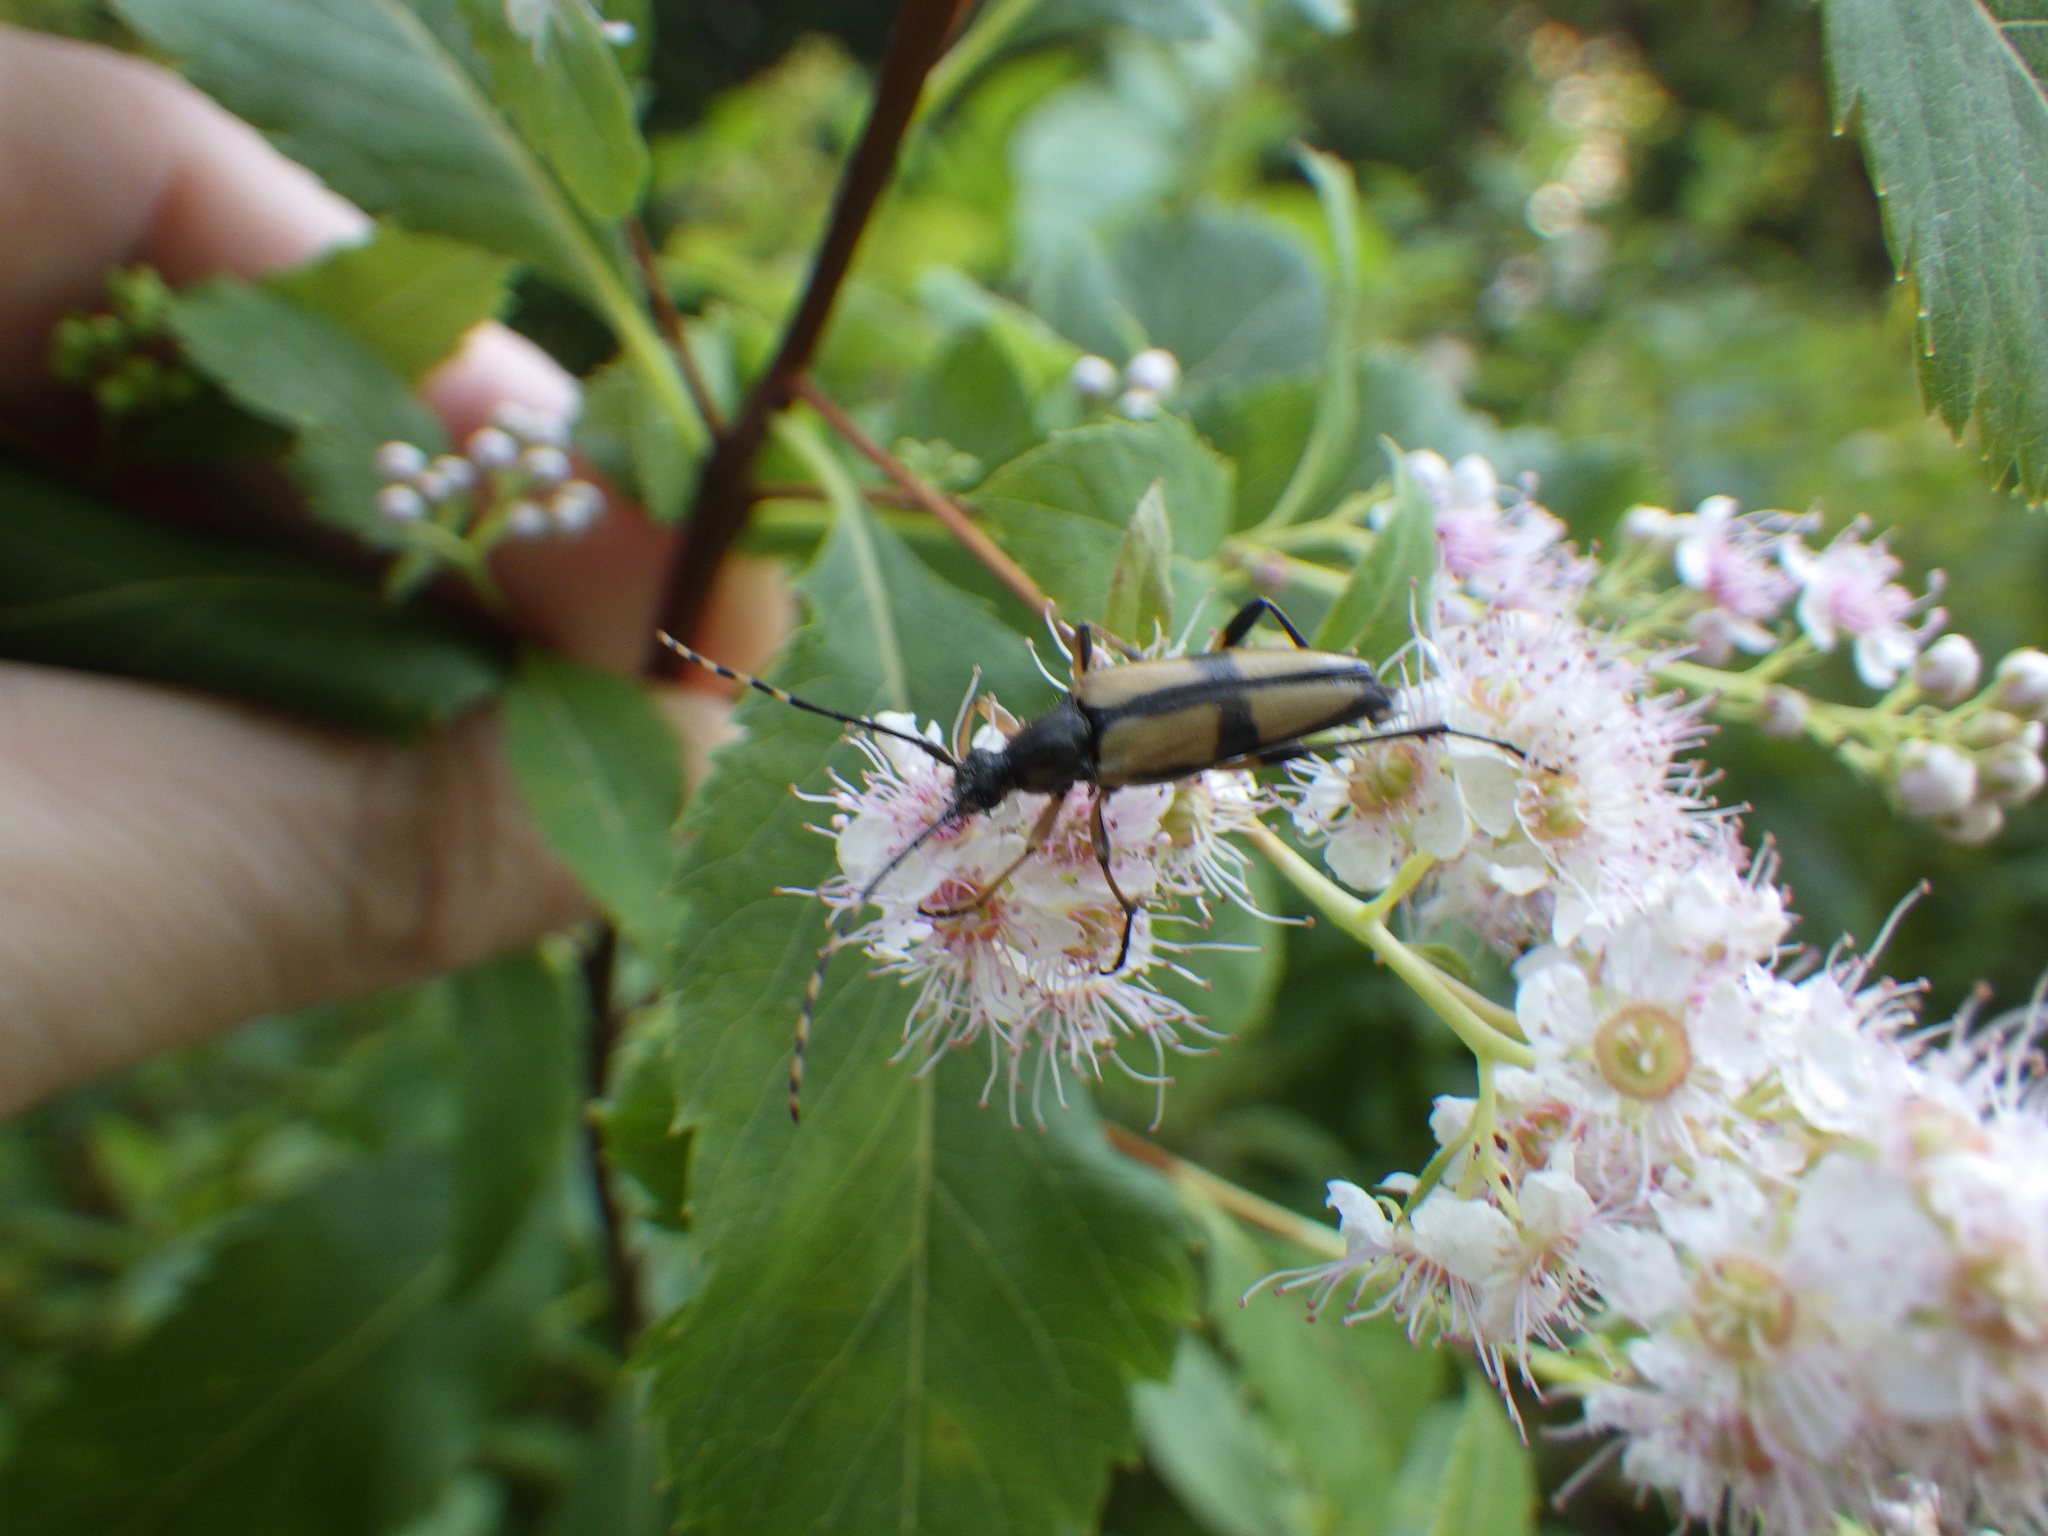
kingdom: Animalia
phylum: Arthropoda
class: Insecta
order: Coleoptera
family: Cerambycidae
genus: Etorofus
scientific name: Etorofus
